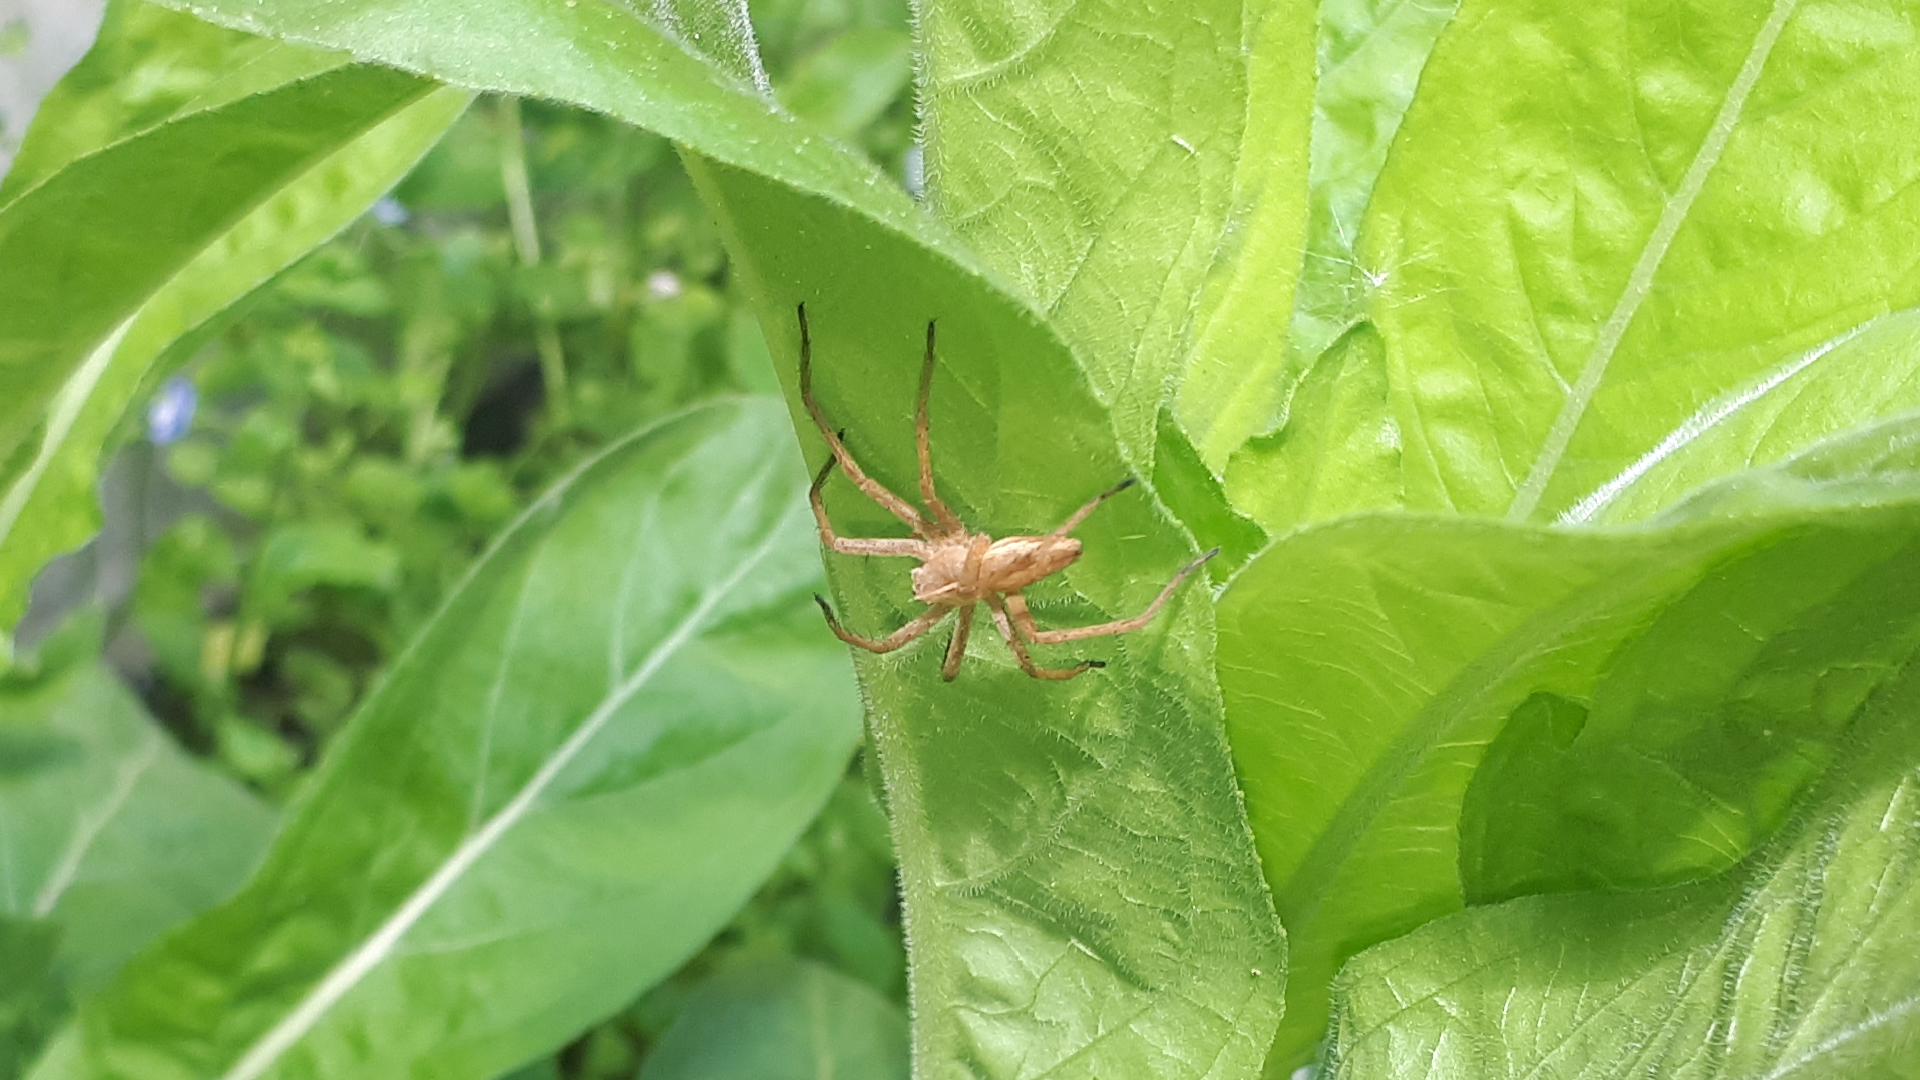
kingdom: Animalia
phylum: Arthropoda
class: Arachnida
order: Araneae
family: Pisauridae
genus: Pisaura
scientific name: Pisaura mirabilis
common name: Tent spider
